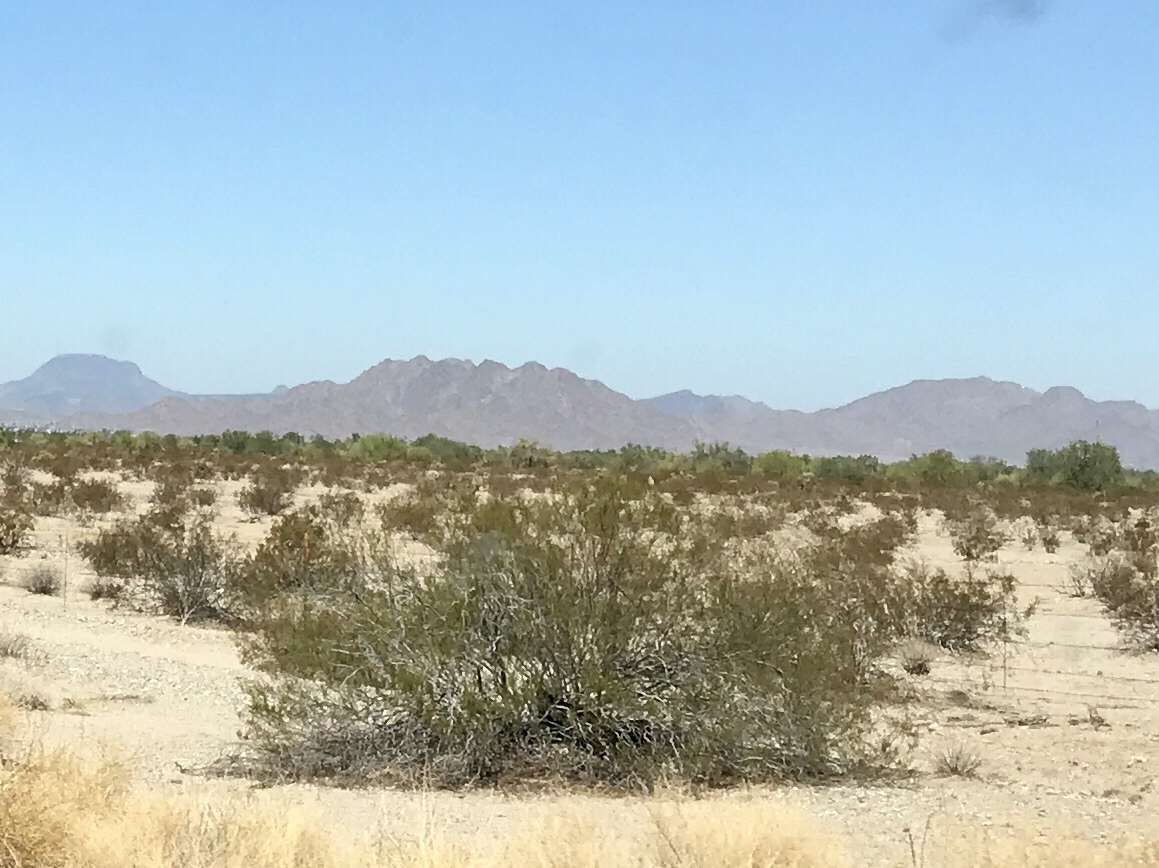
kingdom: Plantae
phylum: Tracheophyta
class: Magnoliopsida
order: Zygophyllales
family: Zygophyllaceae
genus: Larrea
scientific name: Larrea tridentata
